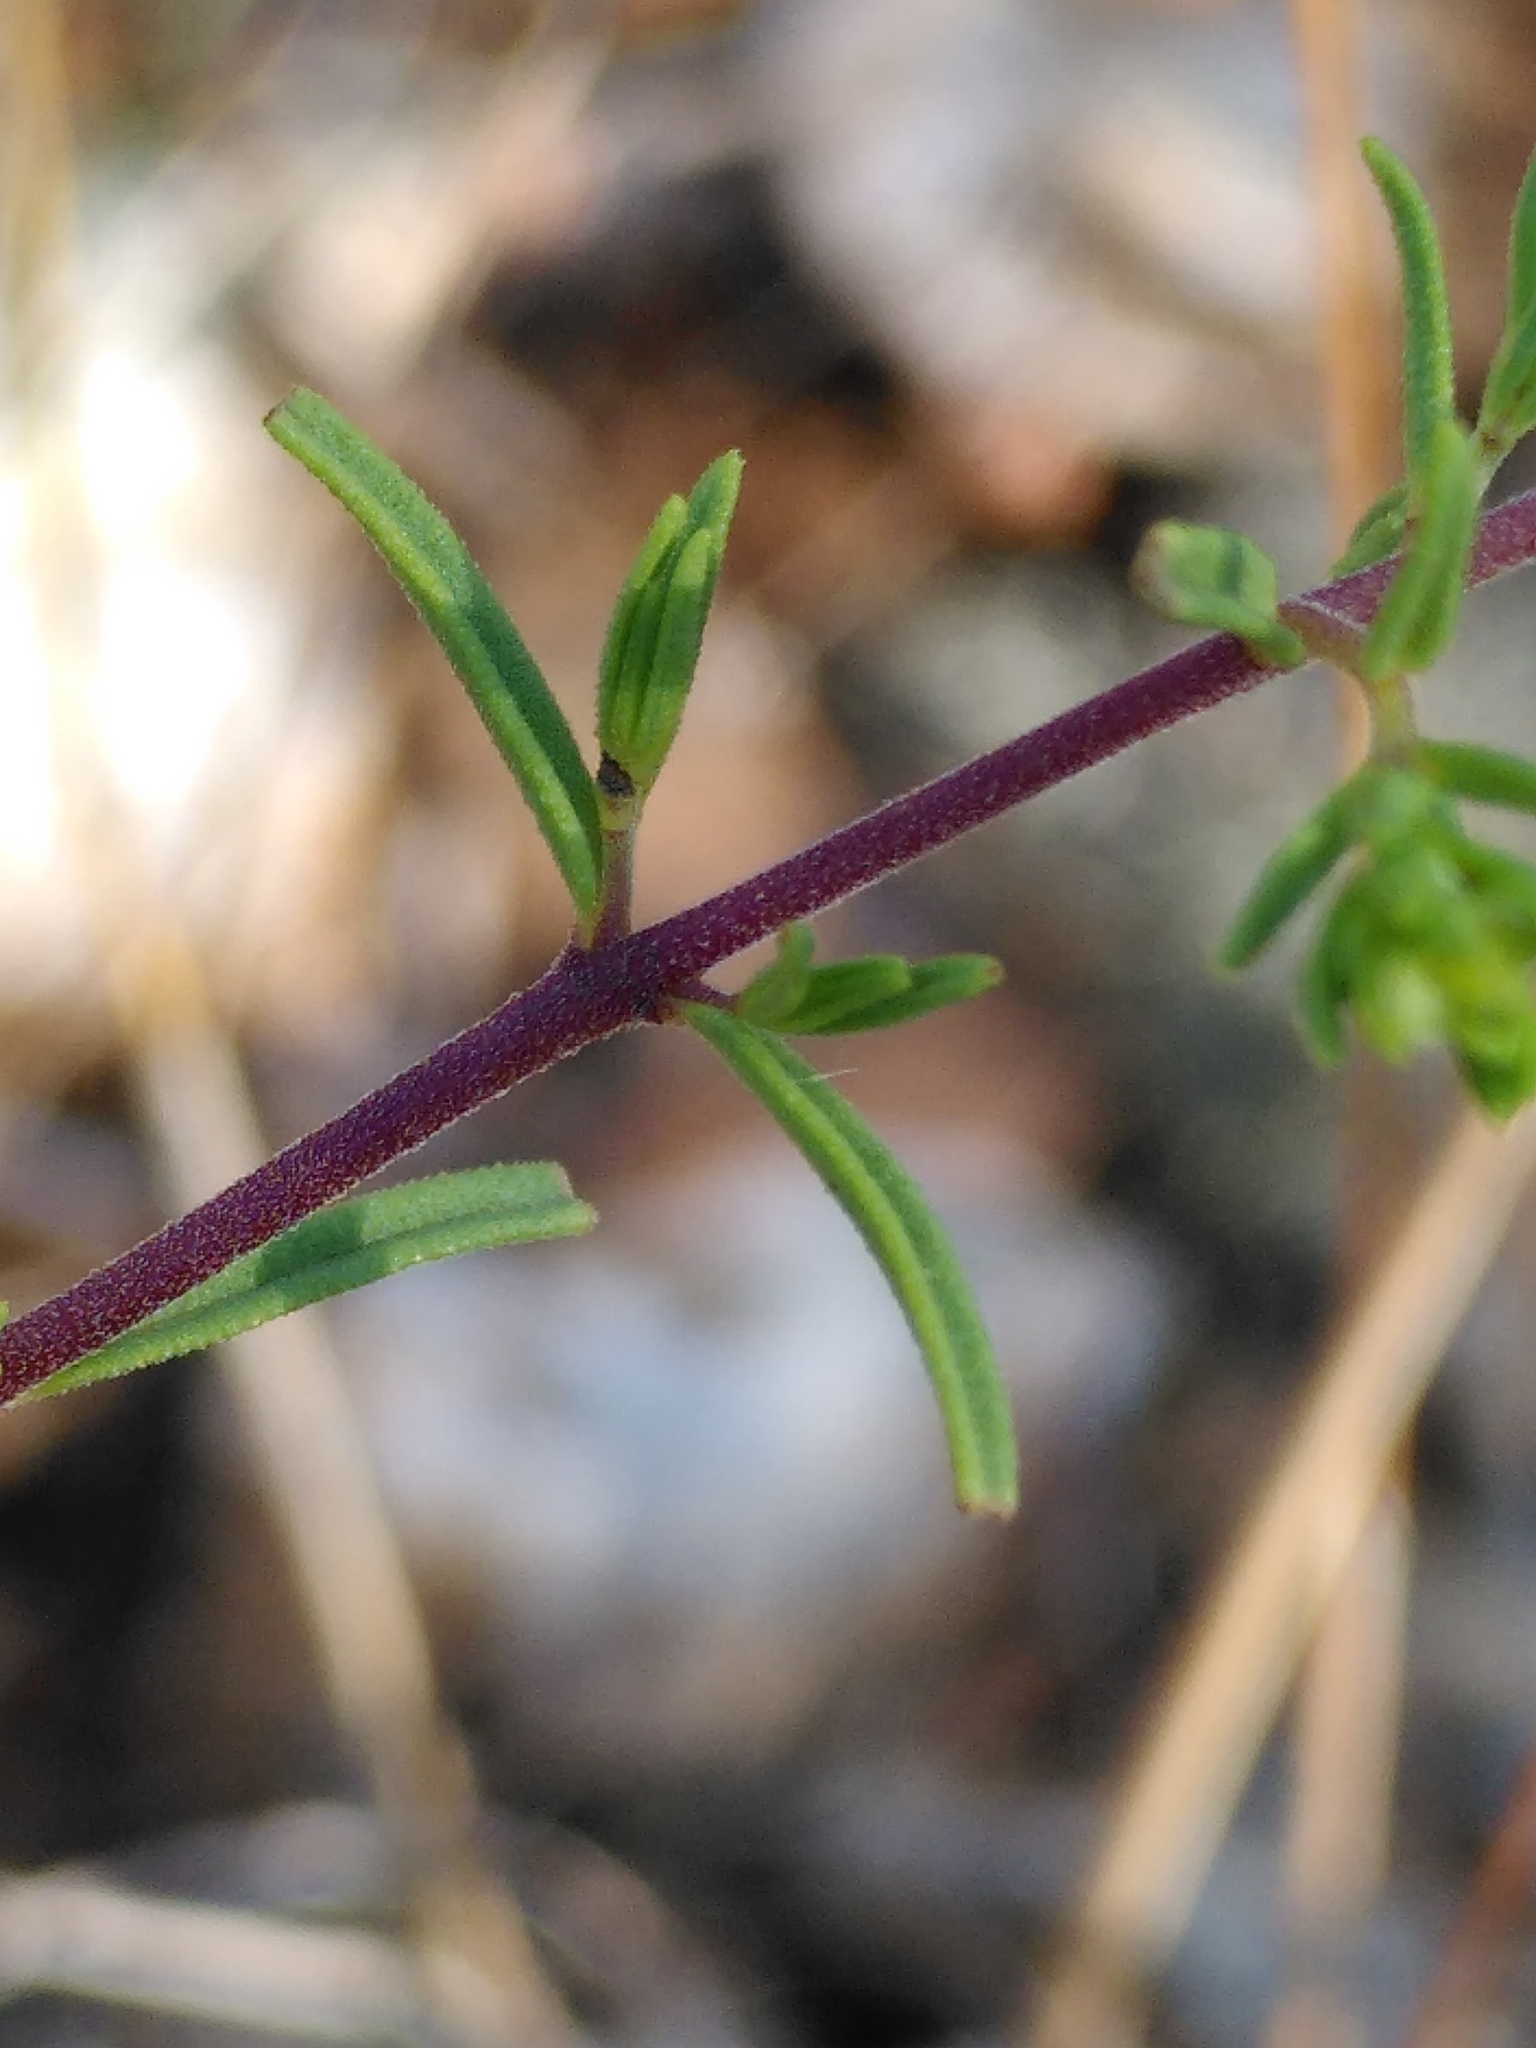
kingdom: Plantae
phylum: Tracheophyta
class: Magnoliopsida
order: Lamiales
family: Orobanchaceae
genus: Odontites
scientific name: Odontites luteus
